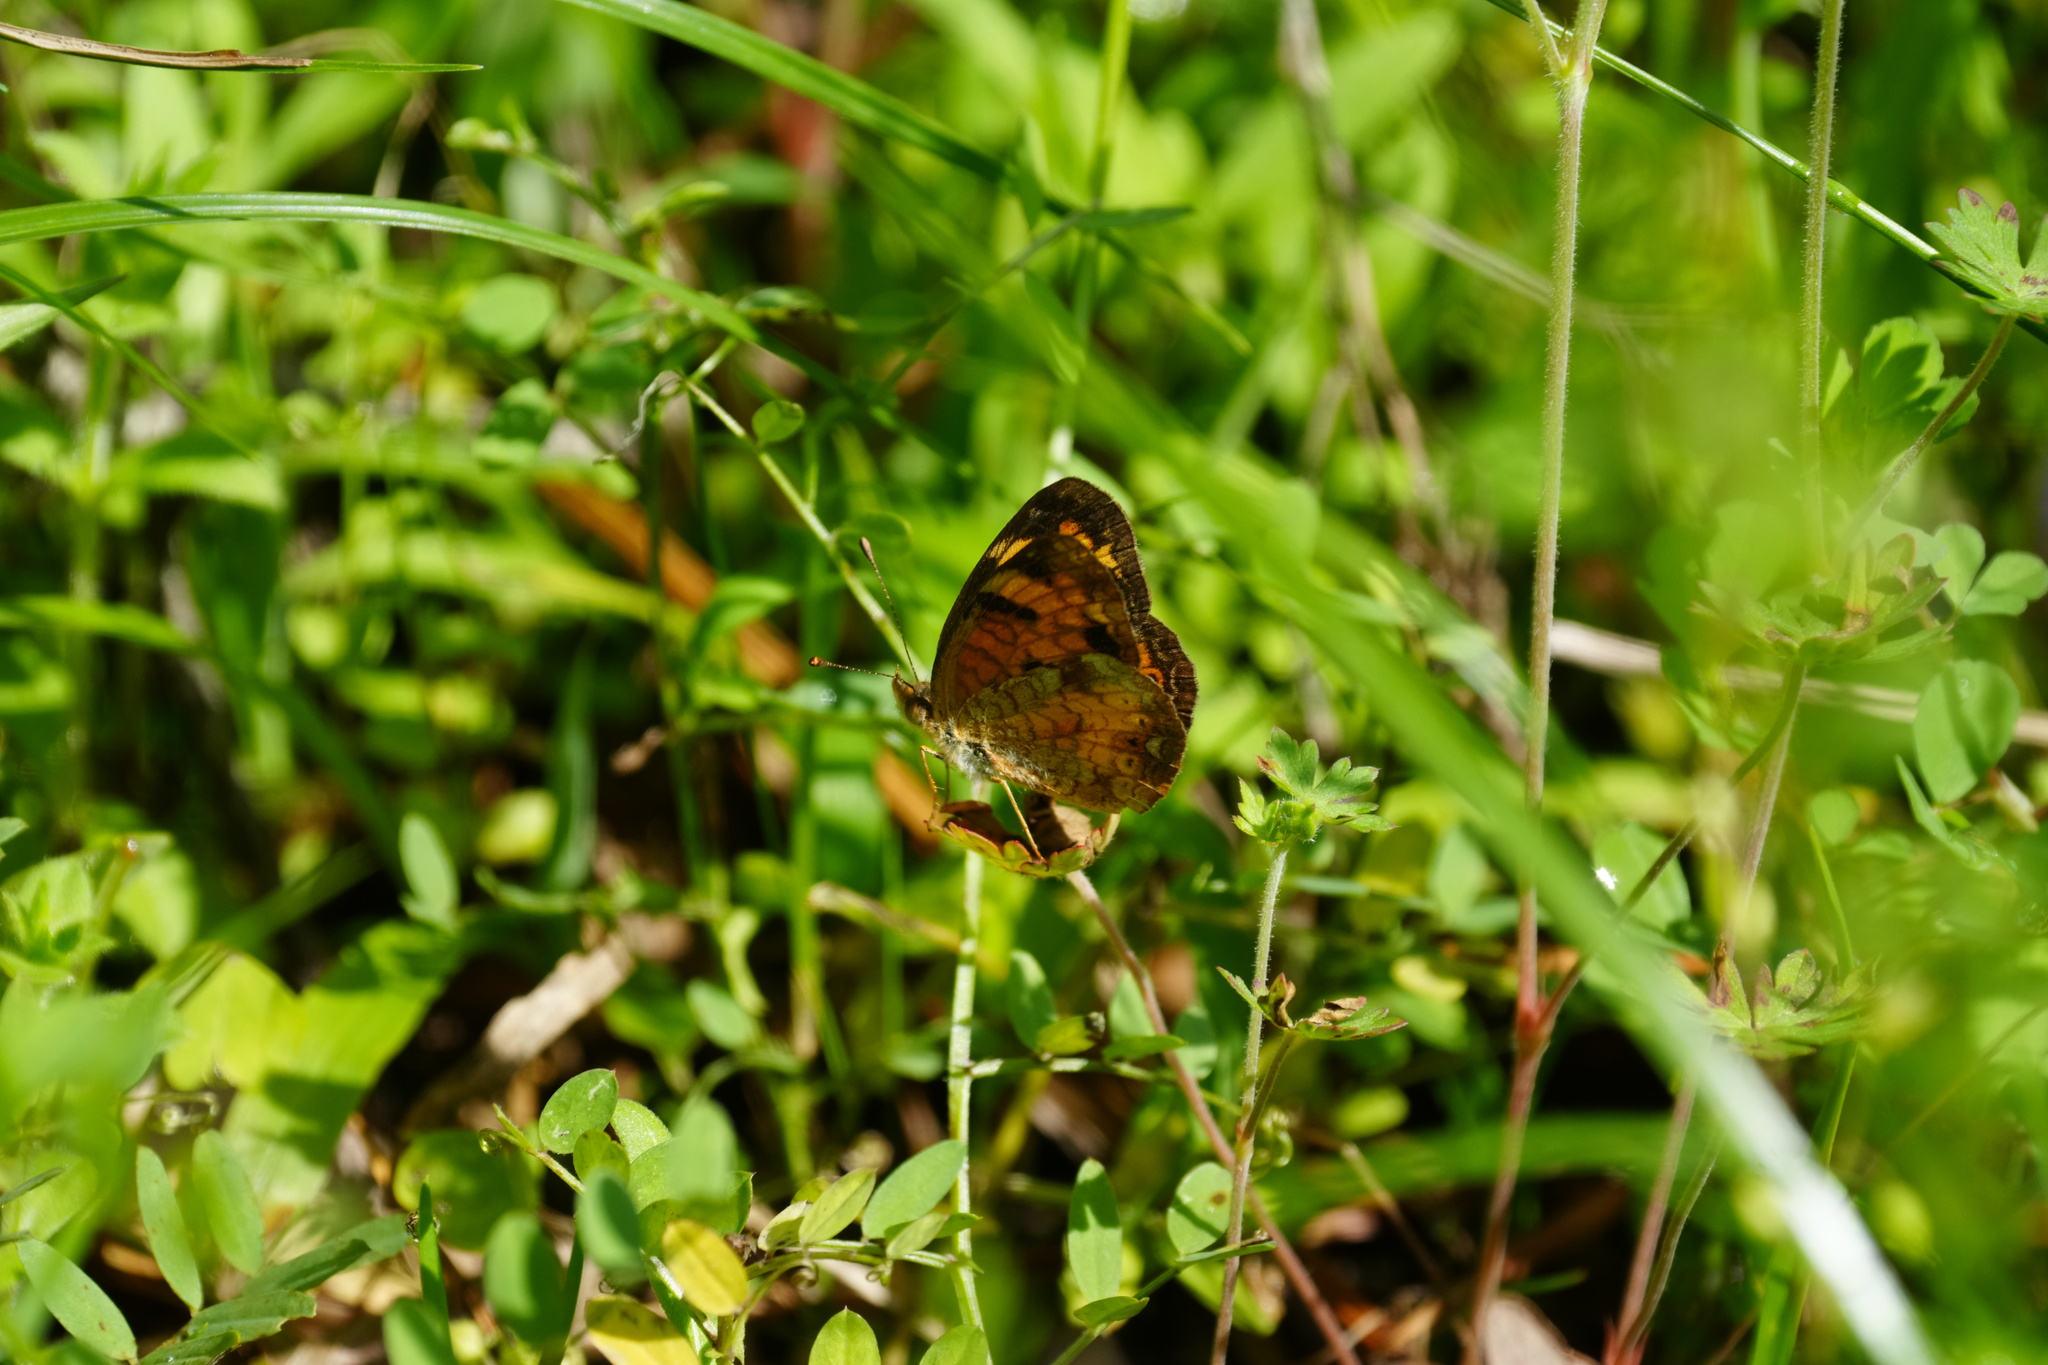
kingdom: Animalia
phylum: Arthropoda
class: Insecta
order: Lepidoptera
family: Nymphalidae
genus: Phyciodes
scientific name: Phyciodes tharos
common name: Pearl crescent
